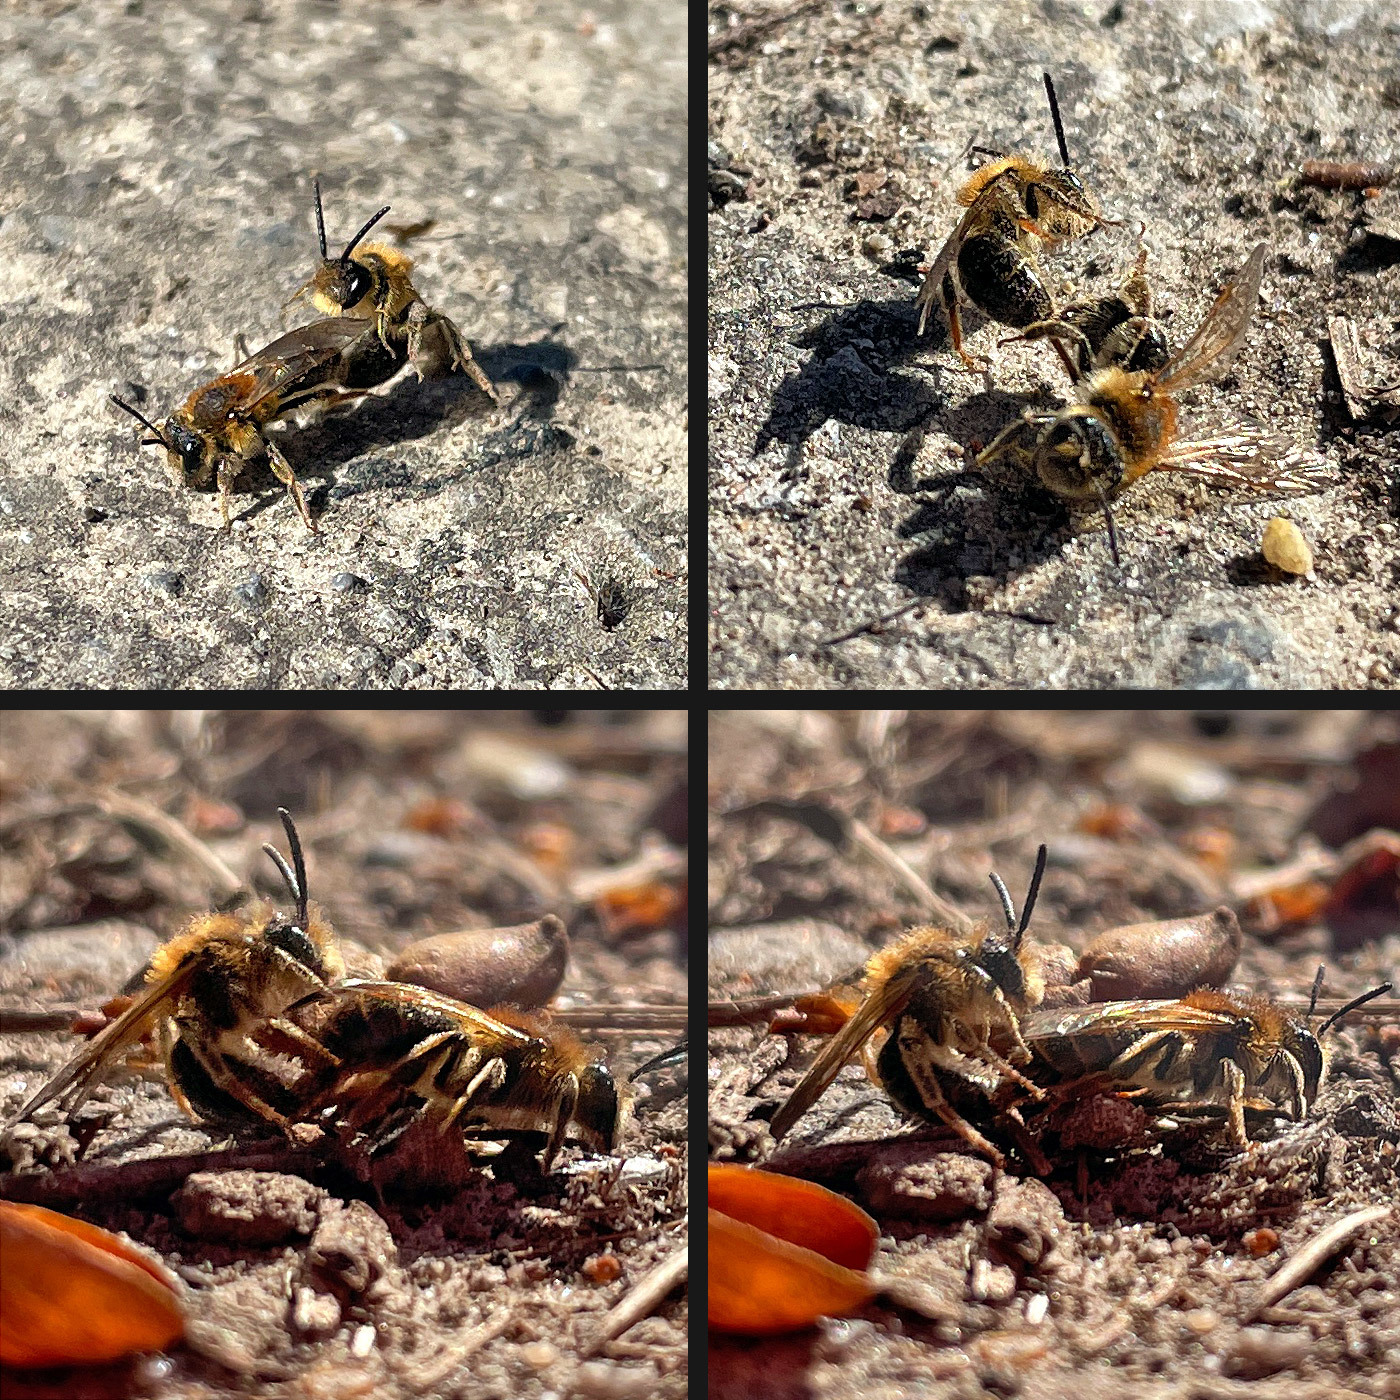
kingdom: Animalia
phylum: Arthropoda
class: Insecta
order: Hymenoptera
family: Andrenidae
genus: Andrena
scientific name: Andrena haemorrhoa
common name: Early mining bee
